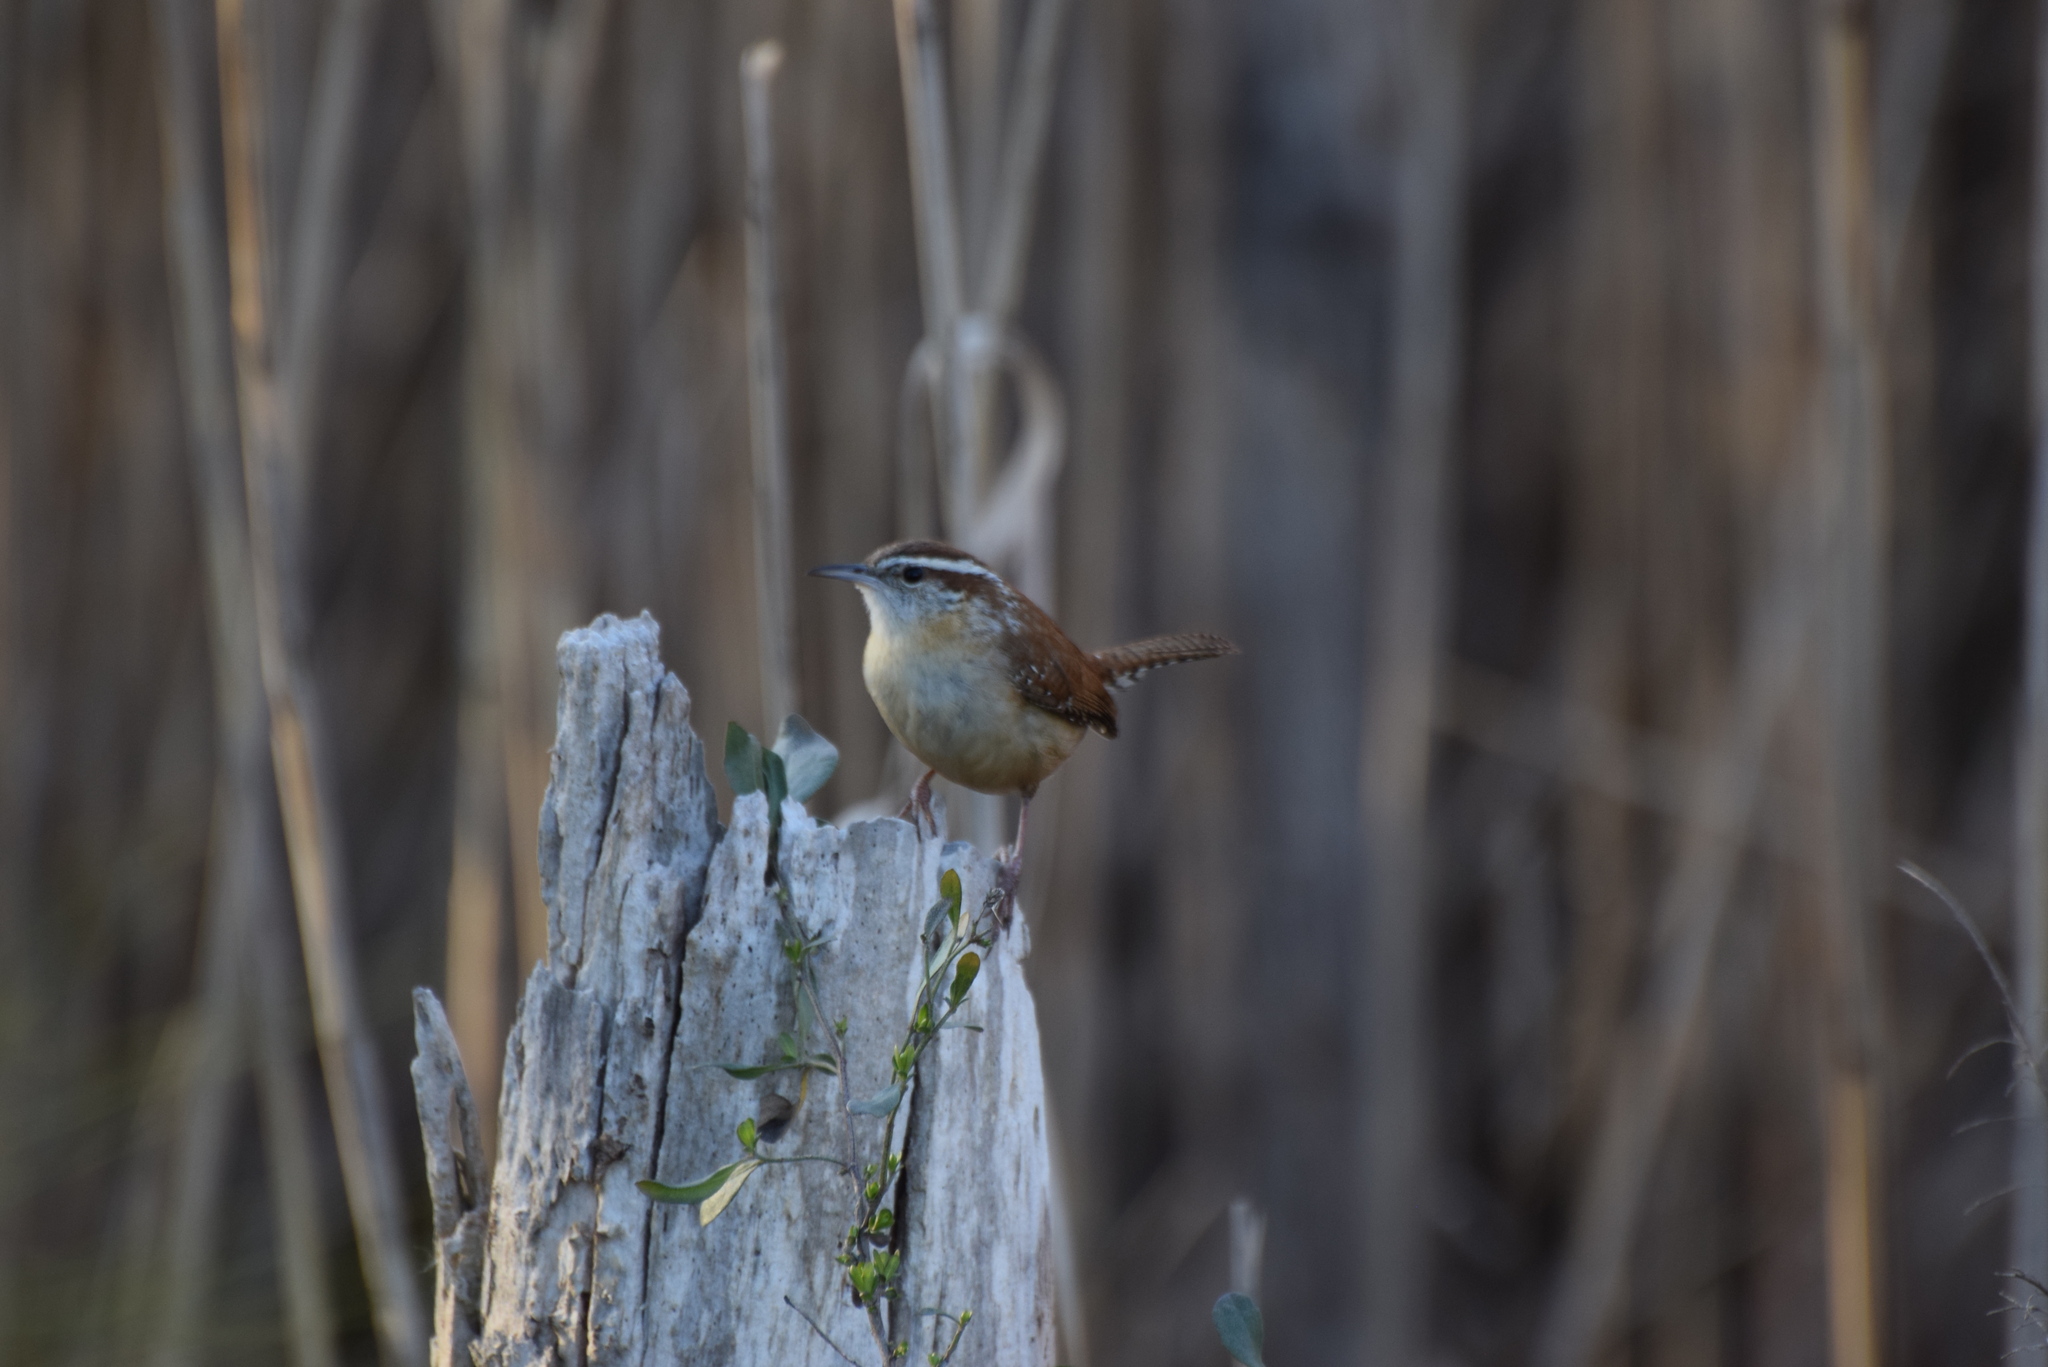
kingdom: Animalia
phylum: Chordata
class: Aves
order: Passeriformes
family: Troglodytidae
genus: Thryothorus
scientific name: Thryothorus ludovicianus
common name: Carolina wren
